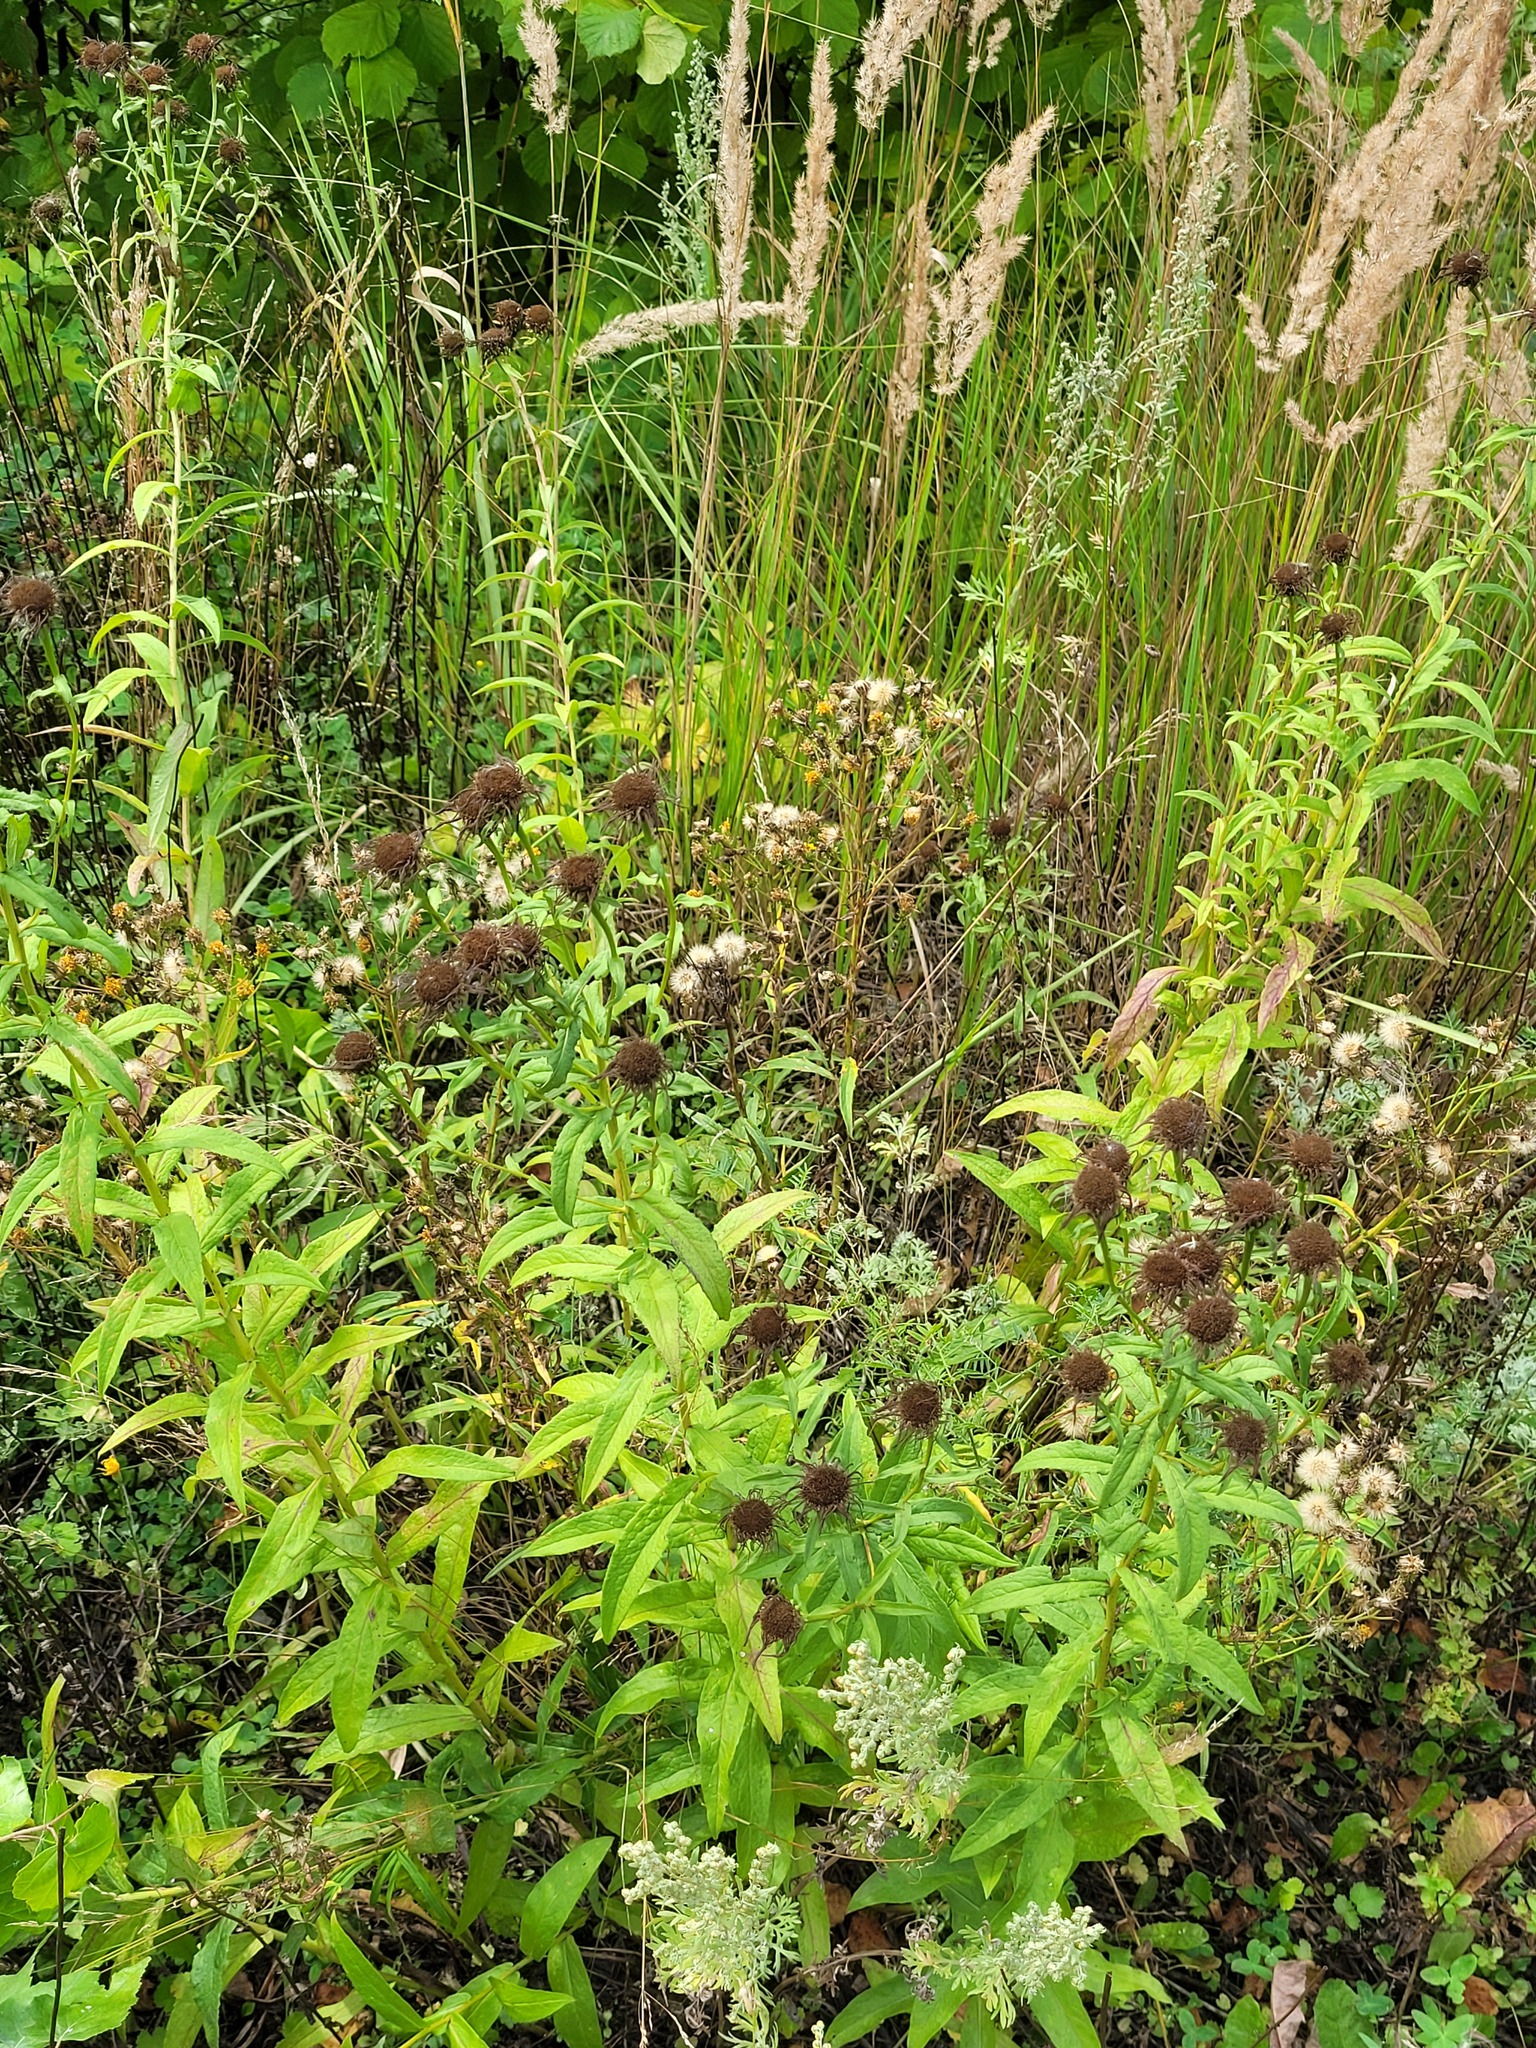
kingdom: Plantae
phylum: Tracheophyta
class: Magnoliopsida
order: Asterales
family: Asteraceae
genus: Pentanema
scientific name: Pentanema salicinum
